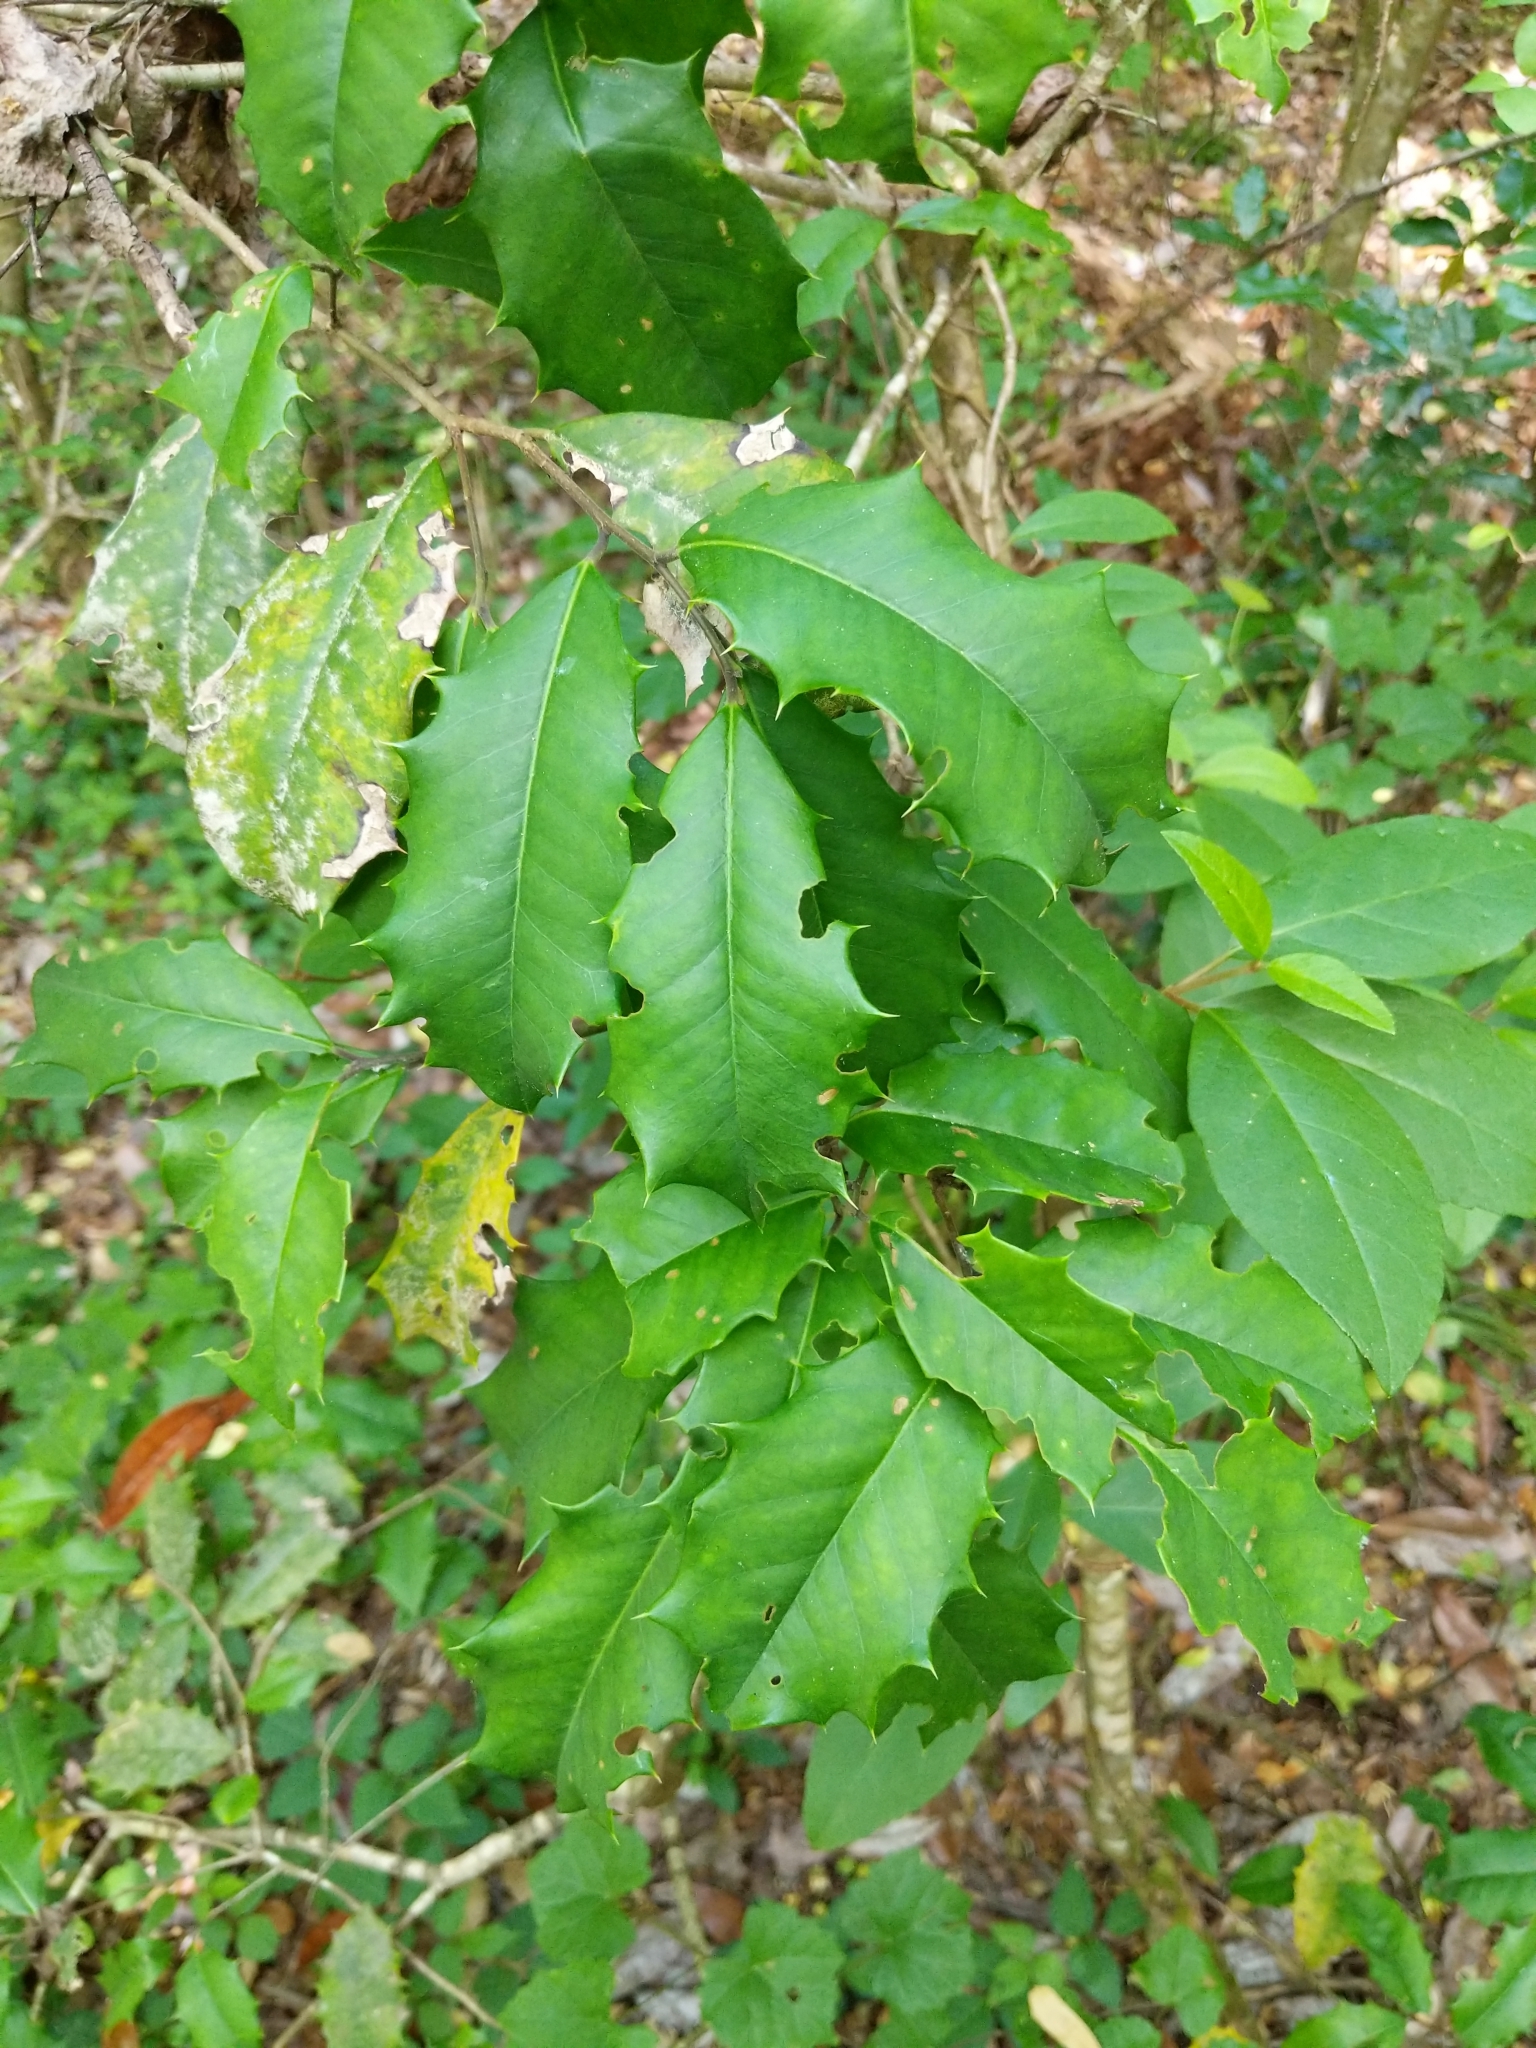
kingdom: Plantae
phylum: Tracheophyta
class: Magnoliopsida
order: Aquifoliales
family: Aquifoliaceae
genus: Ilex
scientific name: Ilex opaca
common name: American holly
